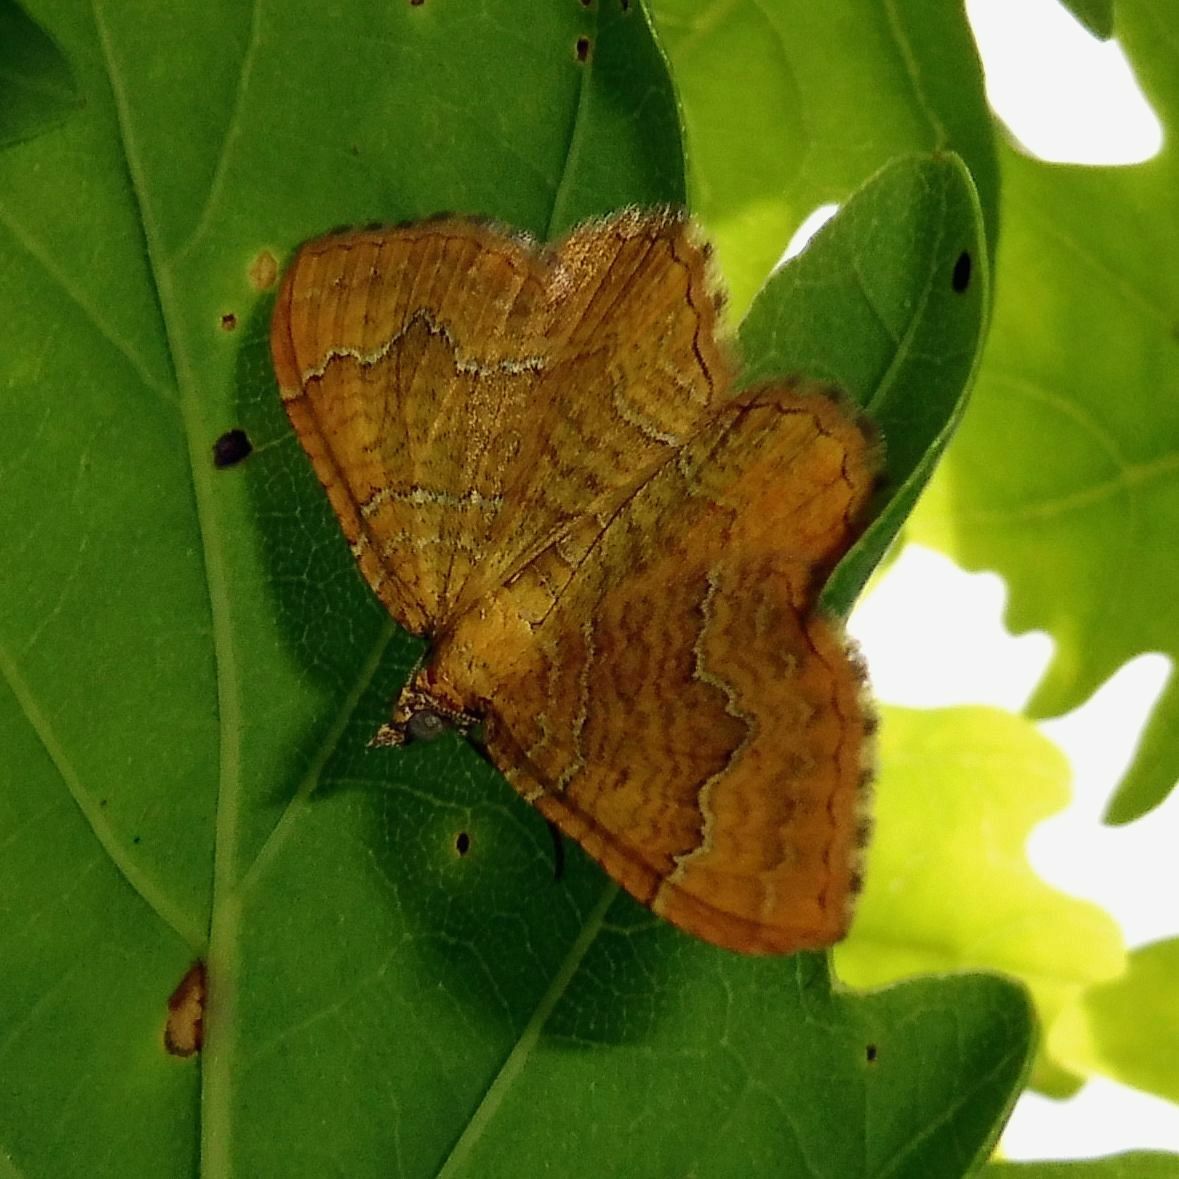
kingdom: Animalia
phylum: Arthropoda
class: Insecta
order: Lepidoptera
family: Geometridae
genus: Camptogramma
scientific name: Camptogramma bilineata
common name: Yellow shell
